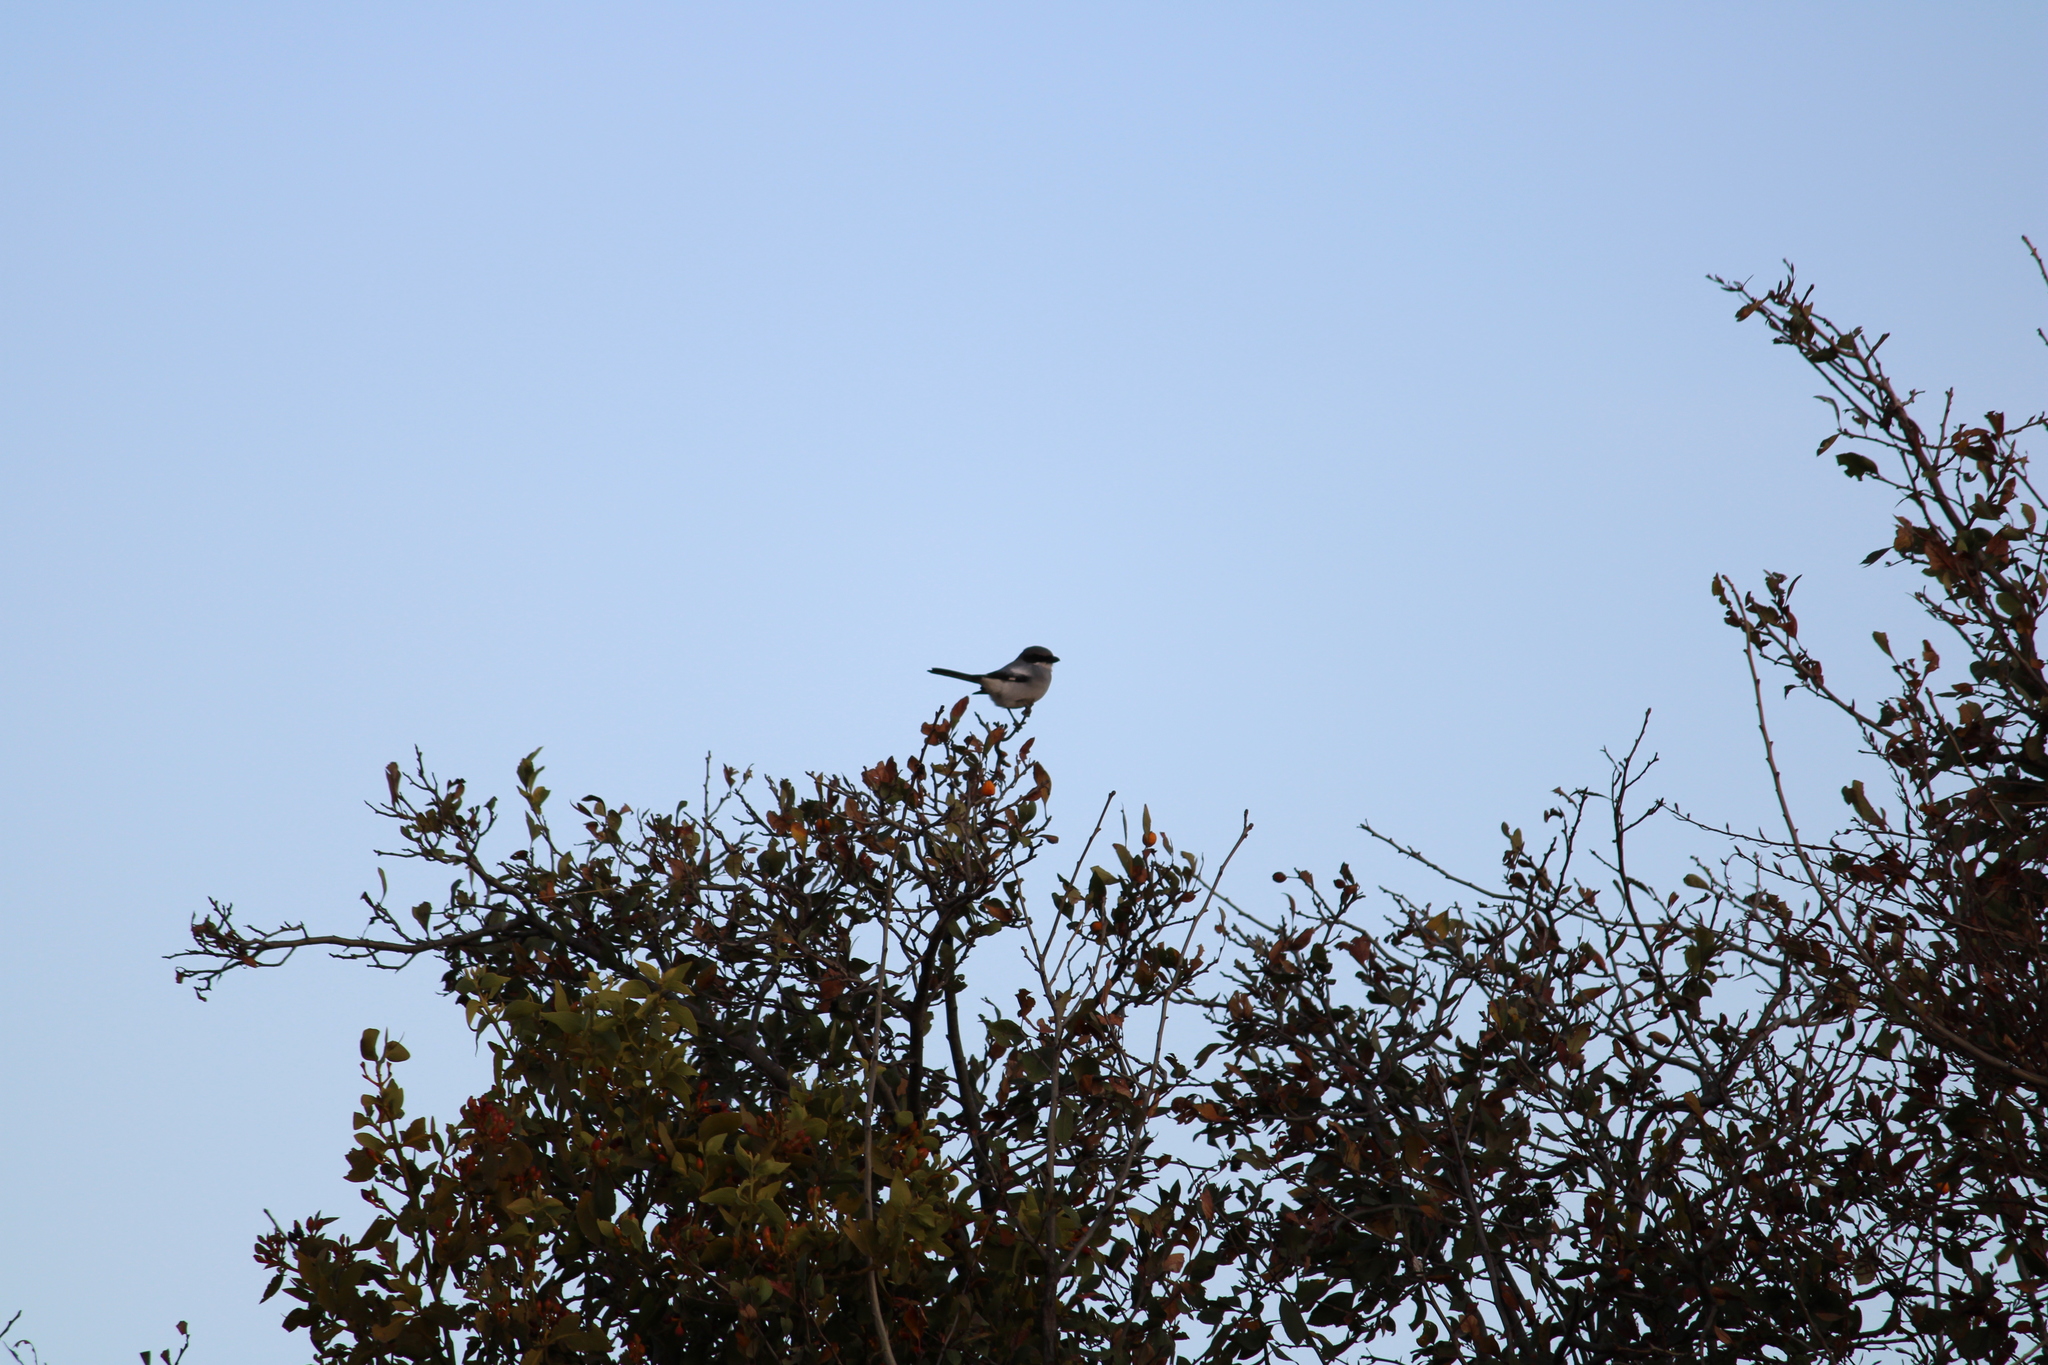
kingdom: Animalia
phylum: Chordata
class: Aves
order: Passeriformes
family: Laniidae
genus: Lanius
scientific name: Lanius ludovicianus
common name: Loggerhead shrike
